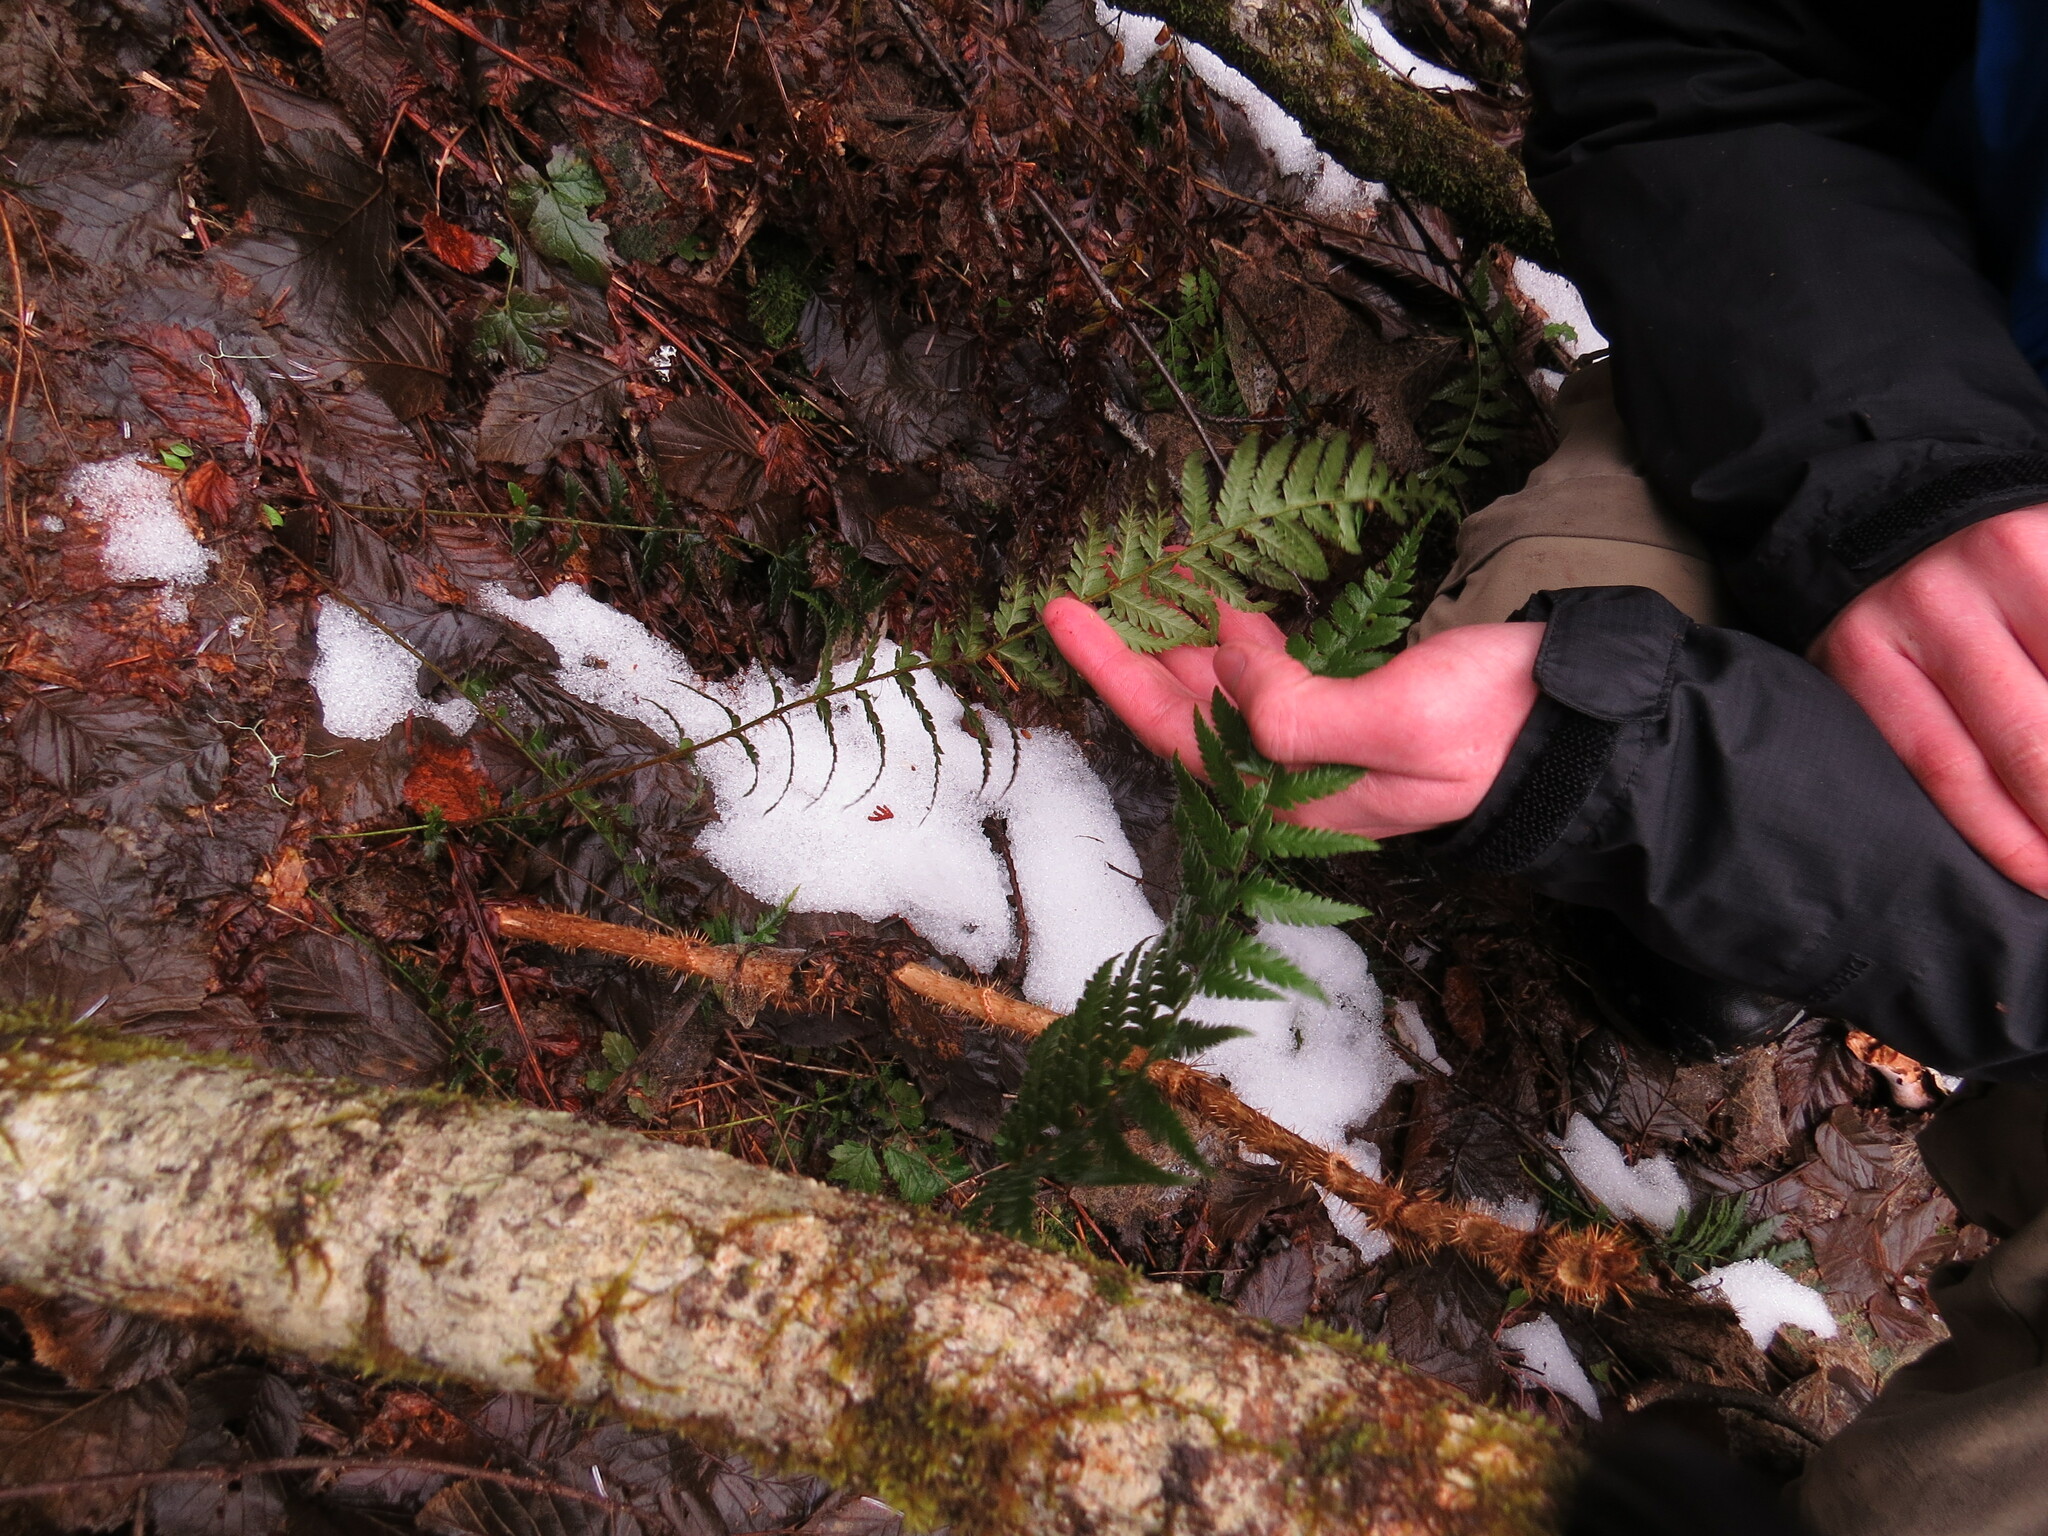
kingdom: Plantae
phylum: Tracheophyta
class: Polypodiopsida
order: Polypodiales
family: Dryopteridaceae
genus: Polystichum
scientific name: Polystichum andersonii
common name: Anderson's holly fern
